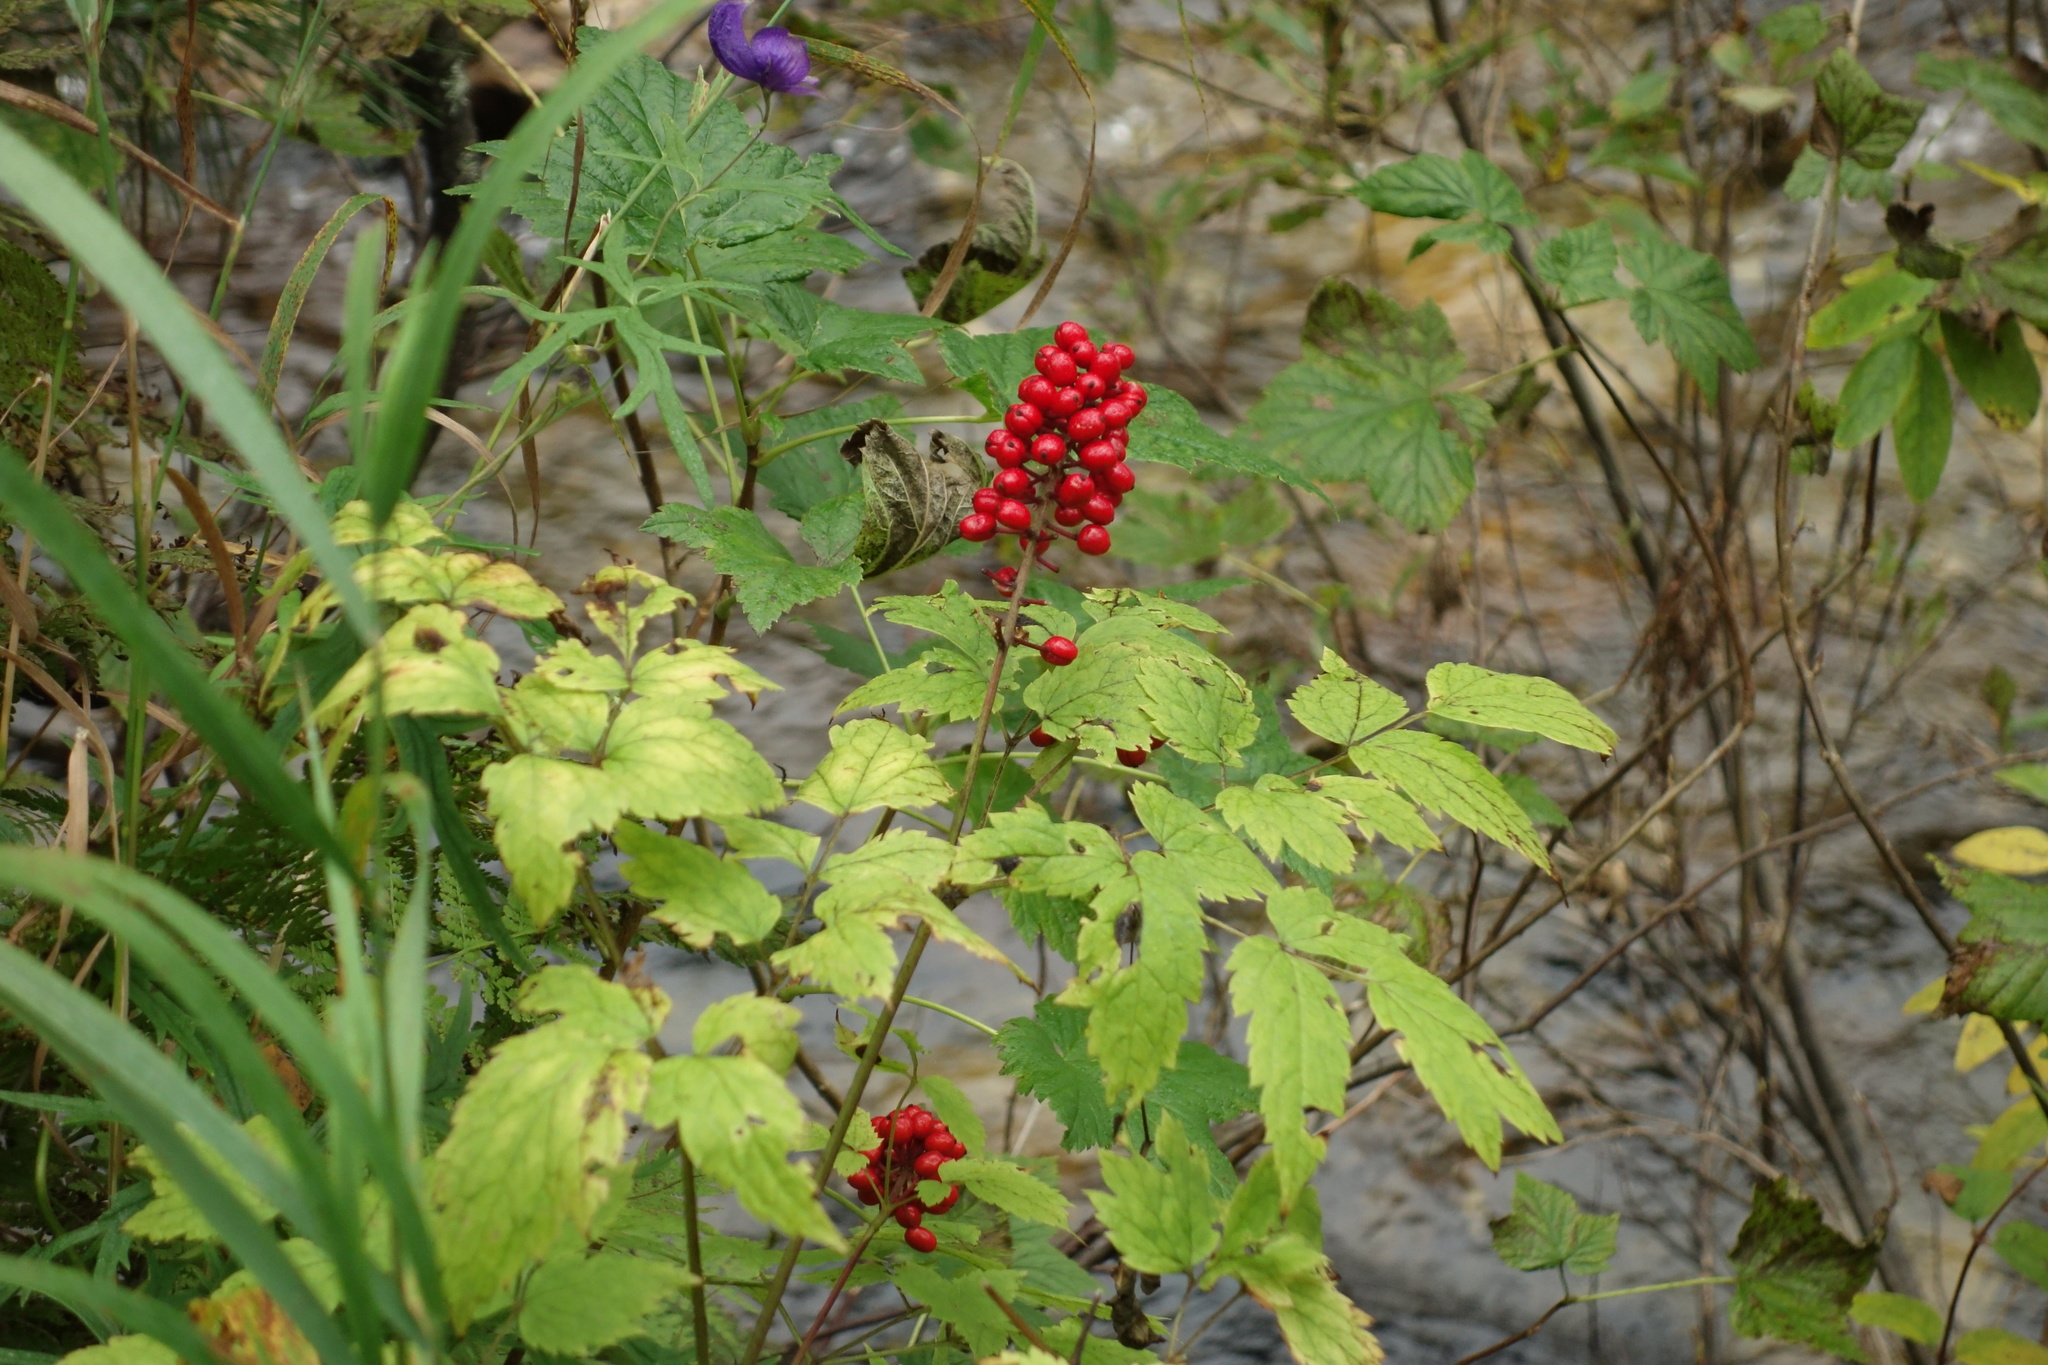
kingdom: Plantae
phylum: Tracheophyta
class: Magnoliopsida
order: Ranunculales
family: Ranunculaceae
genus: Actaea
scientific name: Actaea erythrocarpa
